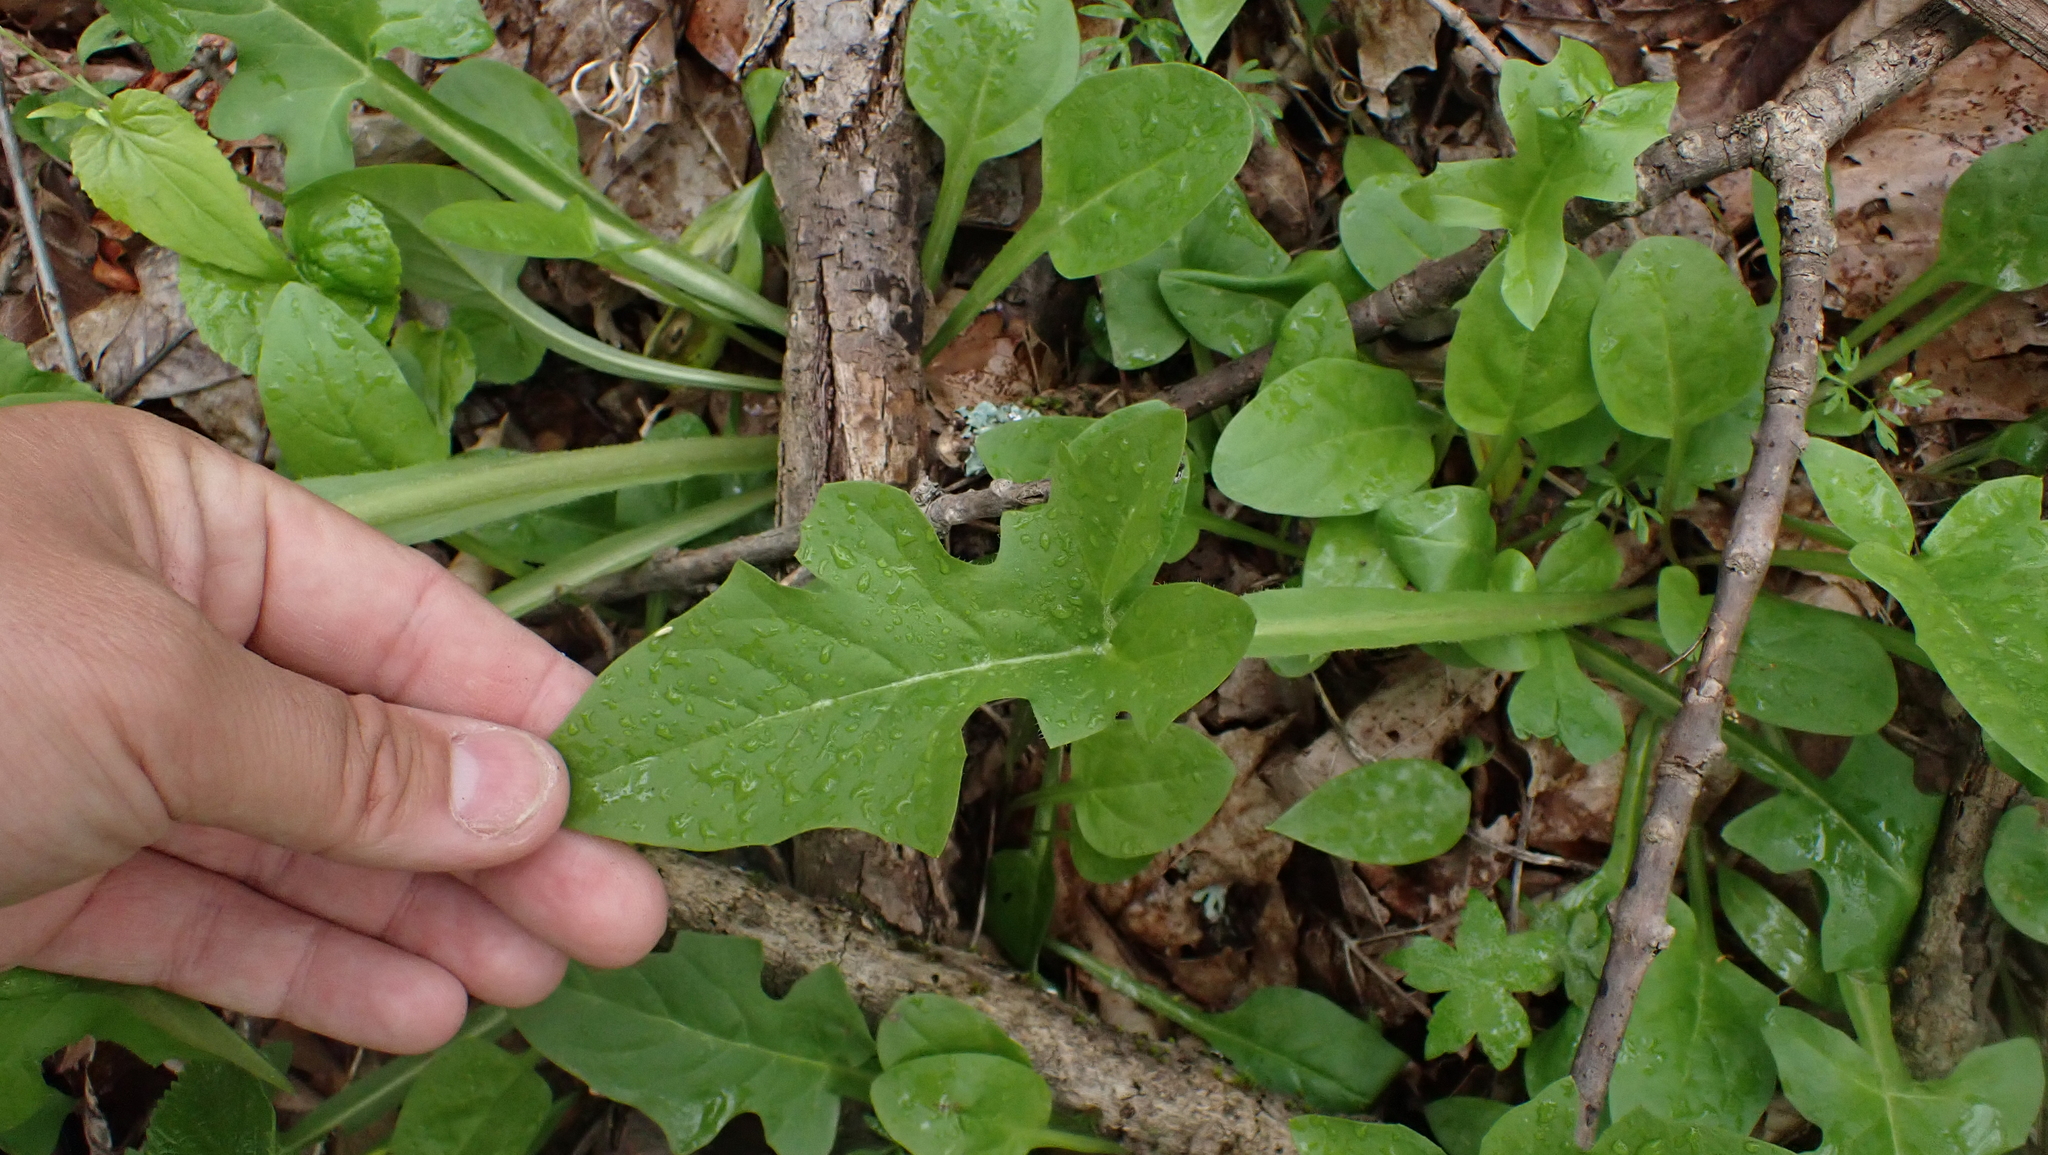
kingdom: Plantae
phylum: Tracheophyta
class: Magnoliopsida
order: Asterales
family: Asteraceae
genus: Nabalus
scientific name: Nabalus crepidineus
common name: Nodding rattlesnakeroot
